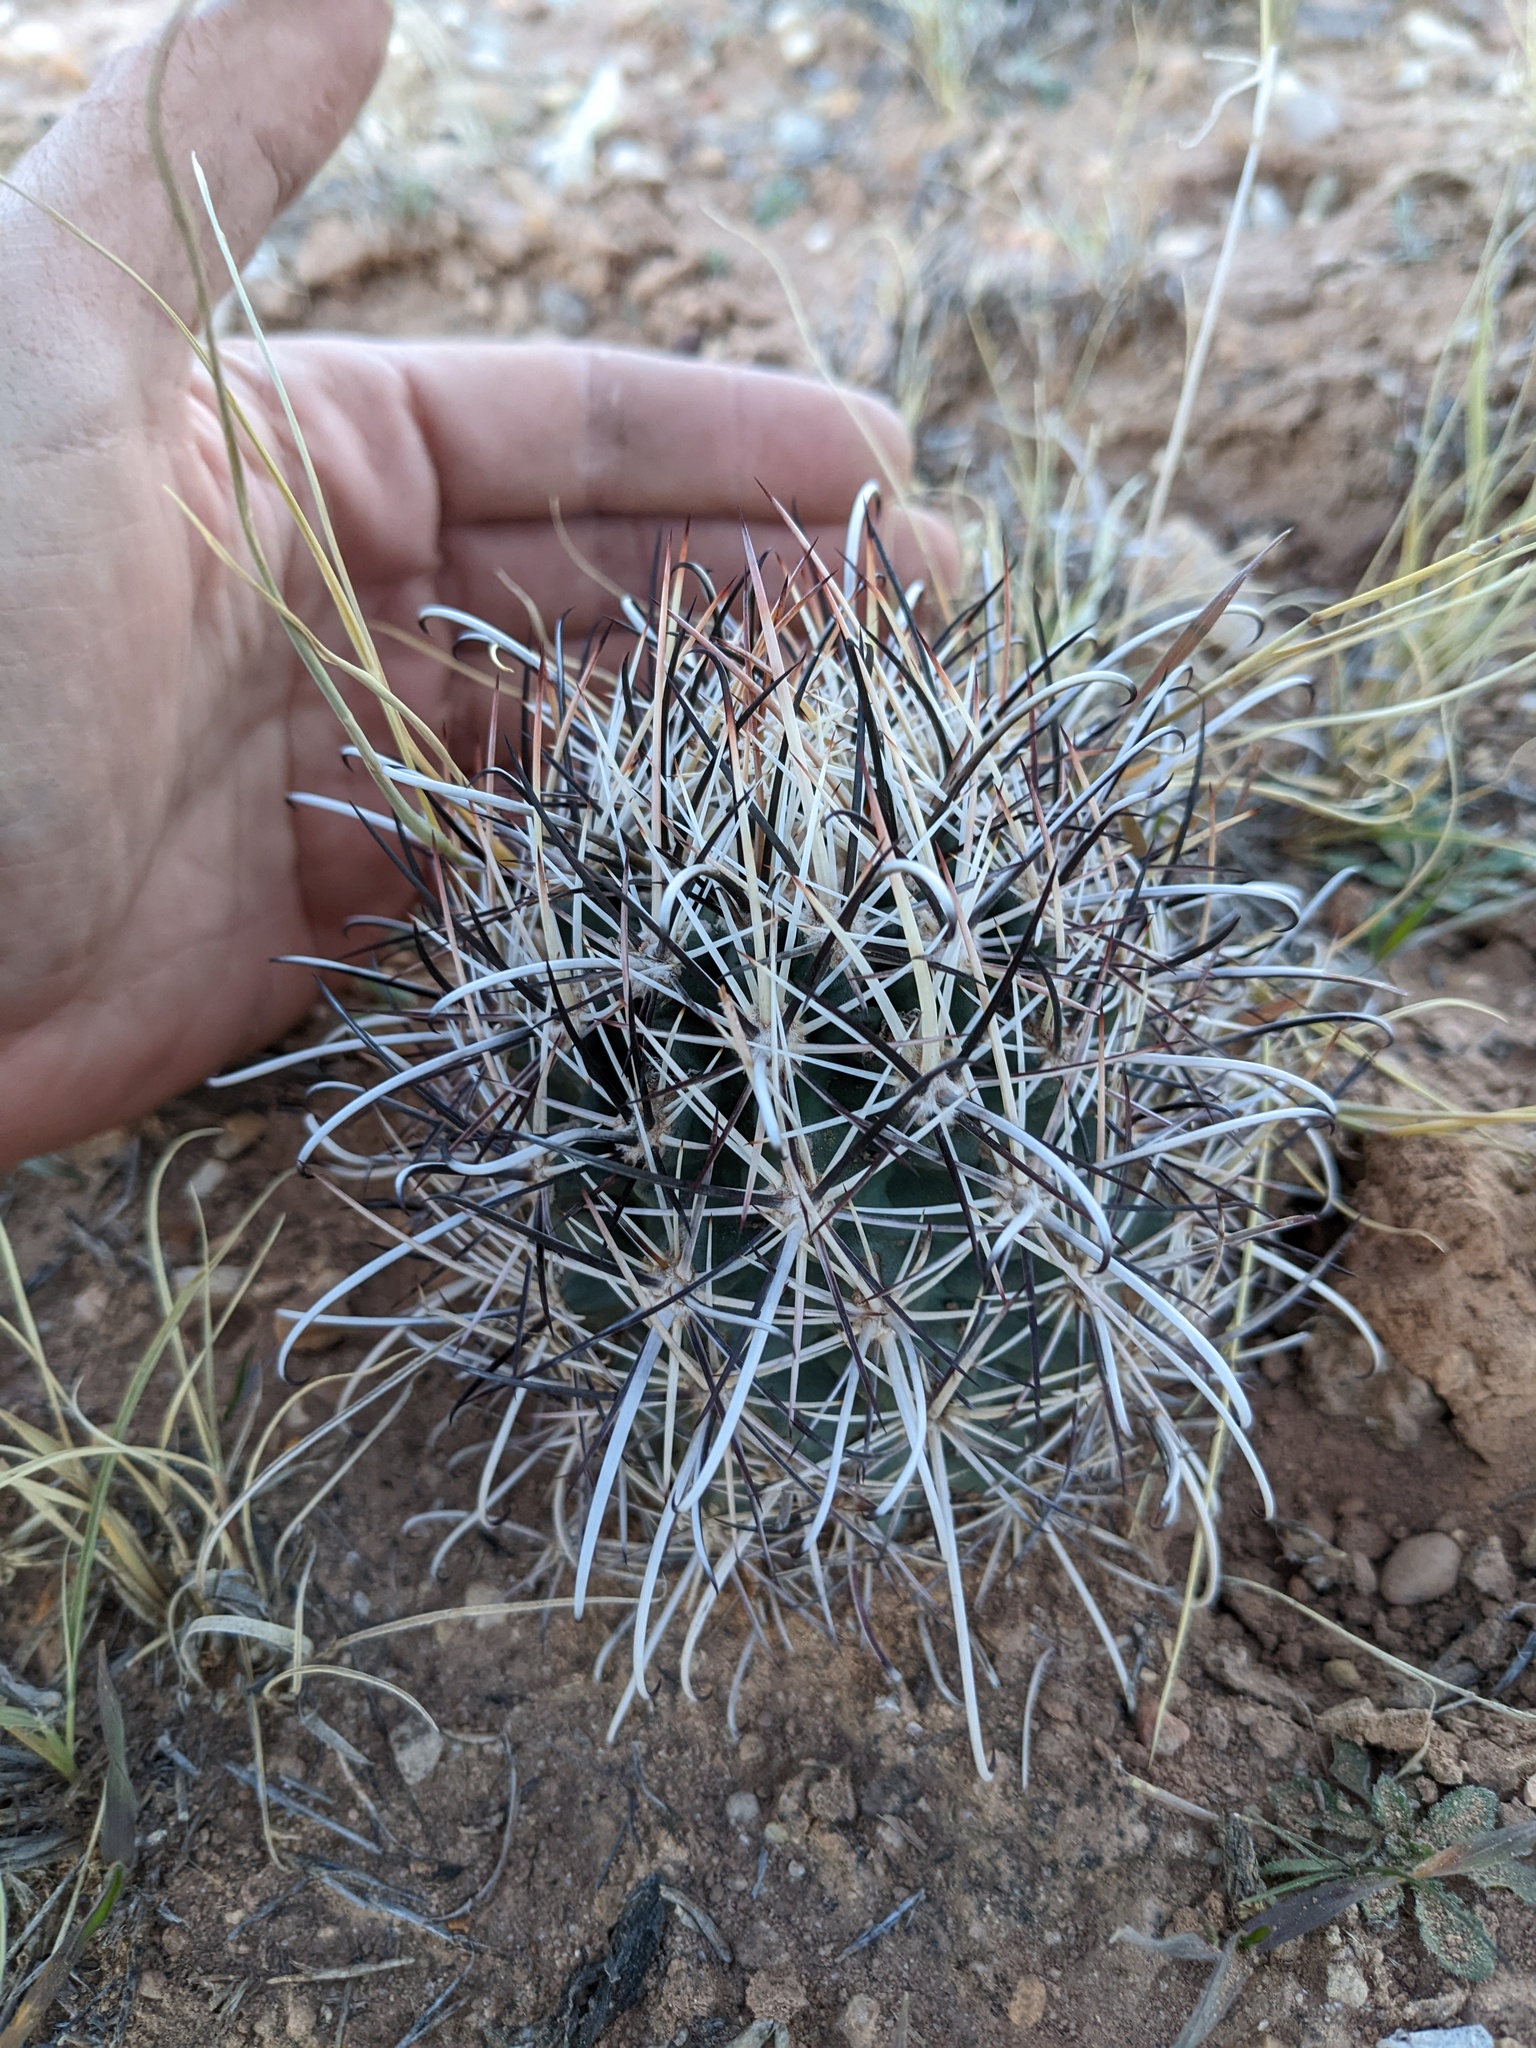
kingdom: Plantae
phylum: Tracheophyta
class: Magnoliopsida
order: Caryophyllales
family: Cactaceae
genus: Sclerocactus
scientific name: Sclerocactus parviflorus
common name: Small-flower fishhook cactus
